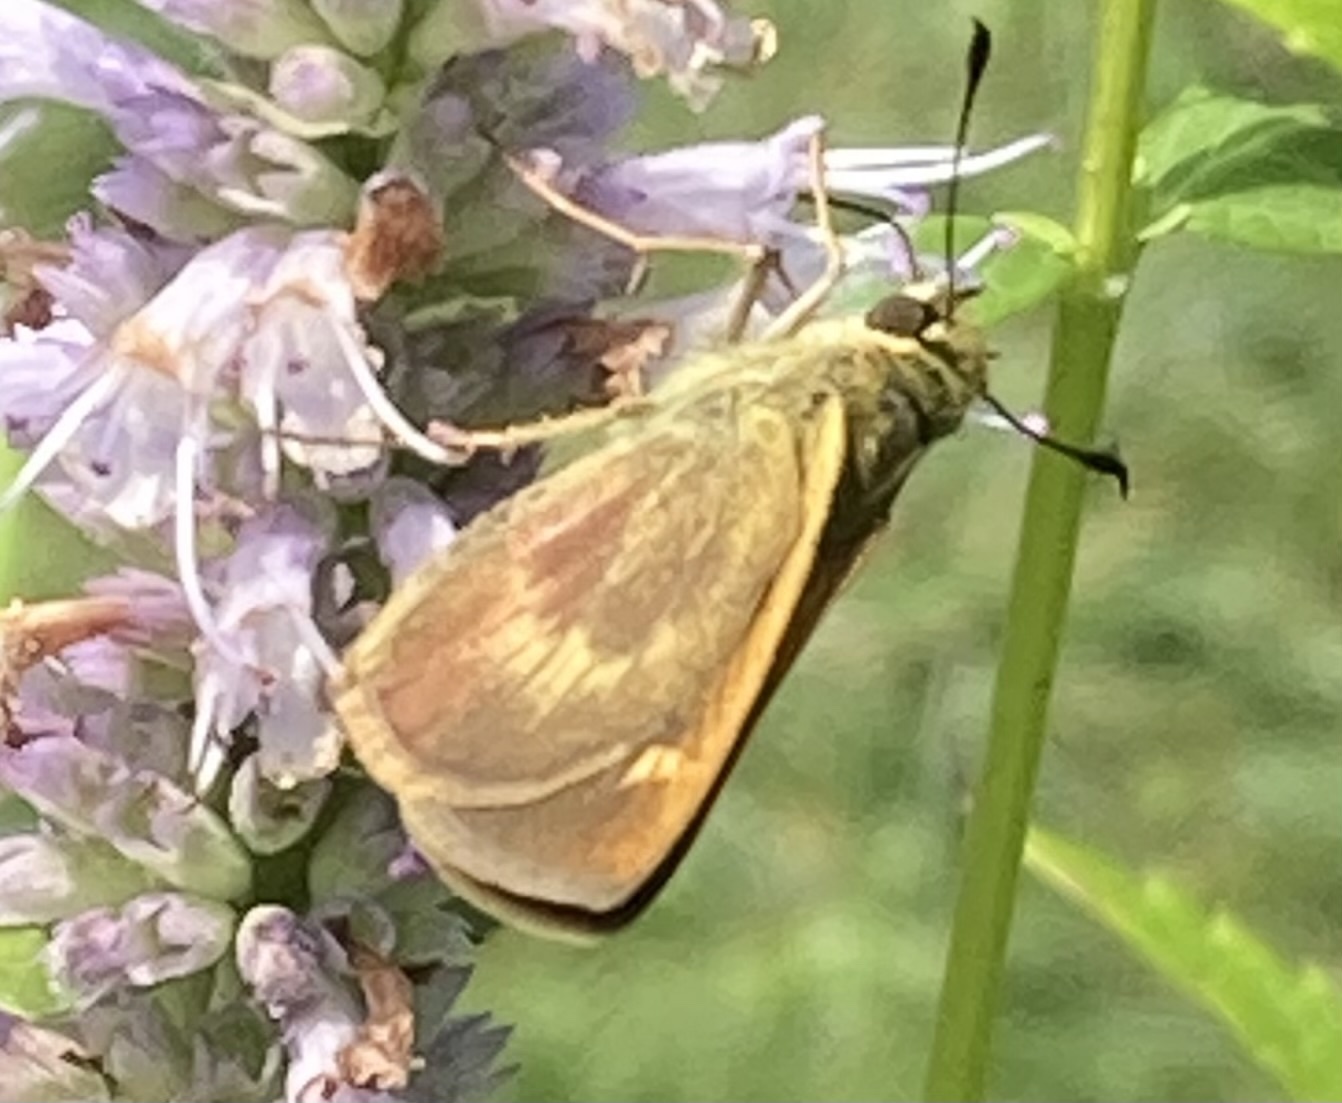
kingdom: Animalia
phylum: Arthropoda
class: Insecta
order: Lepidoptera
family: Hesperiidae
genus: Polites
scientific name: Polites egeremet
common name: Northern broken-dash
